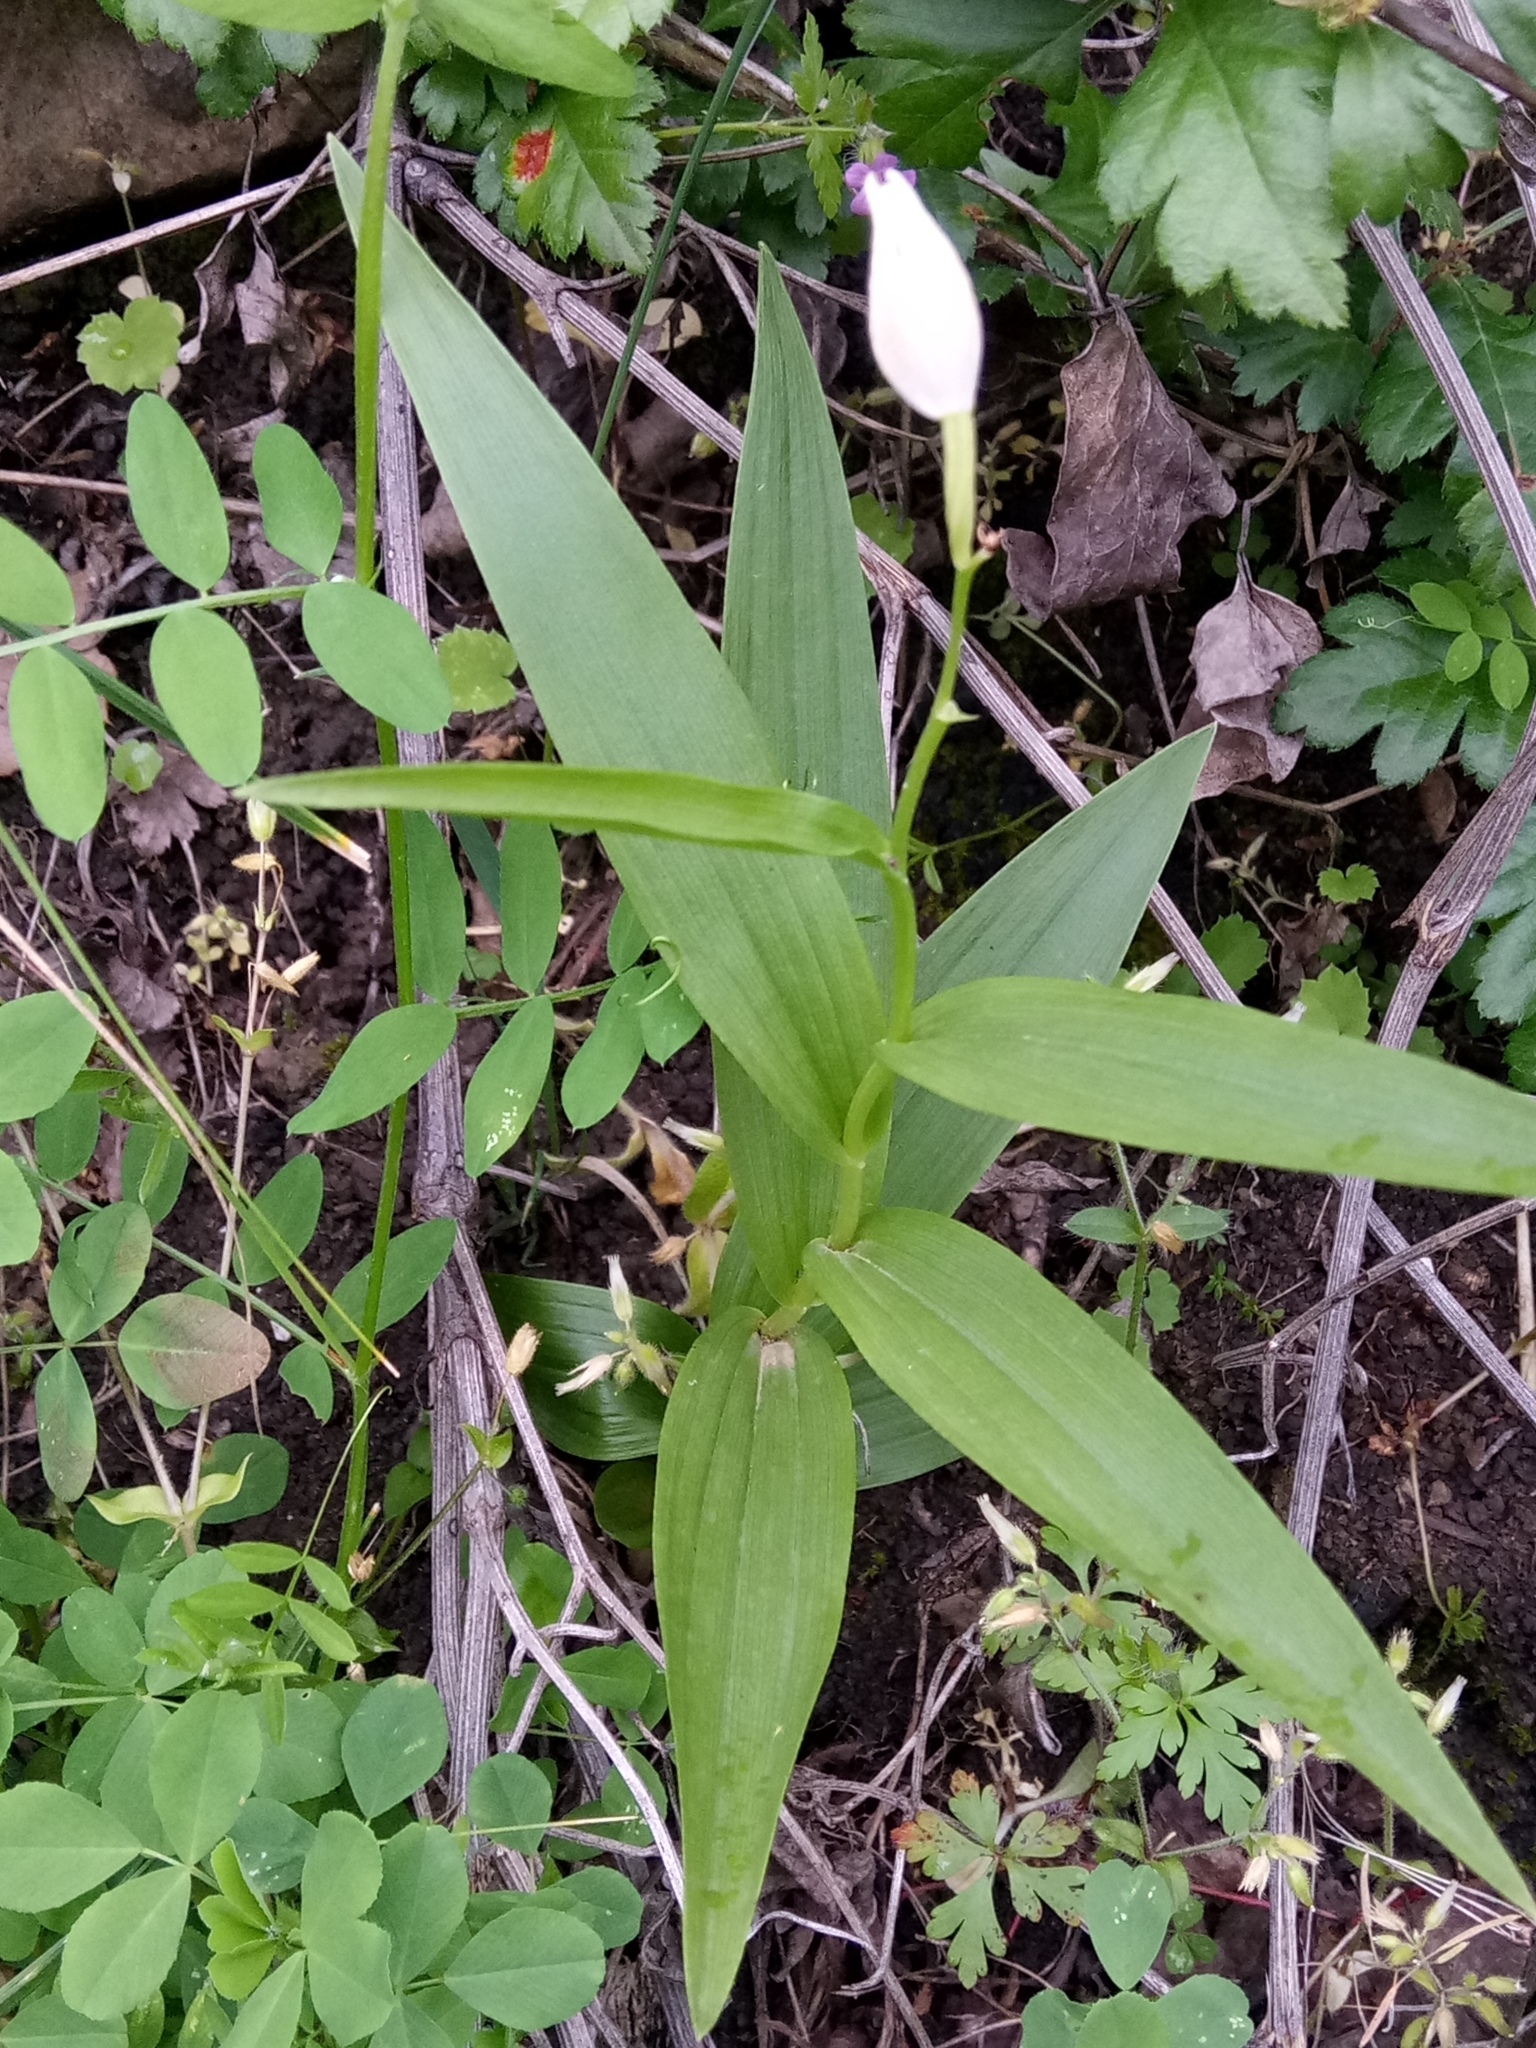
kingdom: Plantae
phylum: Tracheophyta
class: Liliopsida
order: Asparagales
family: Orchidaceae
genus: Cephalanthera
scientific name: Cephalanthera longifolia
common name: Narrow-leaved helleborine
